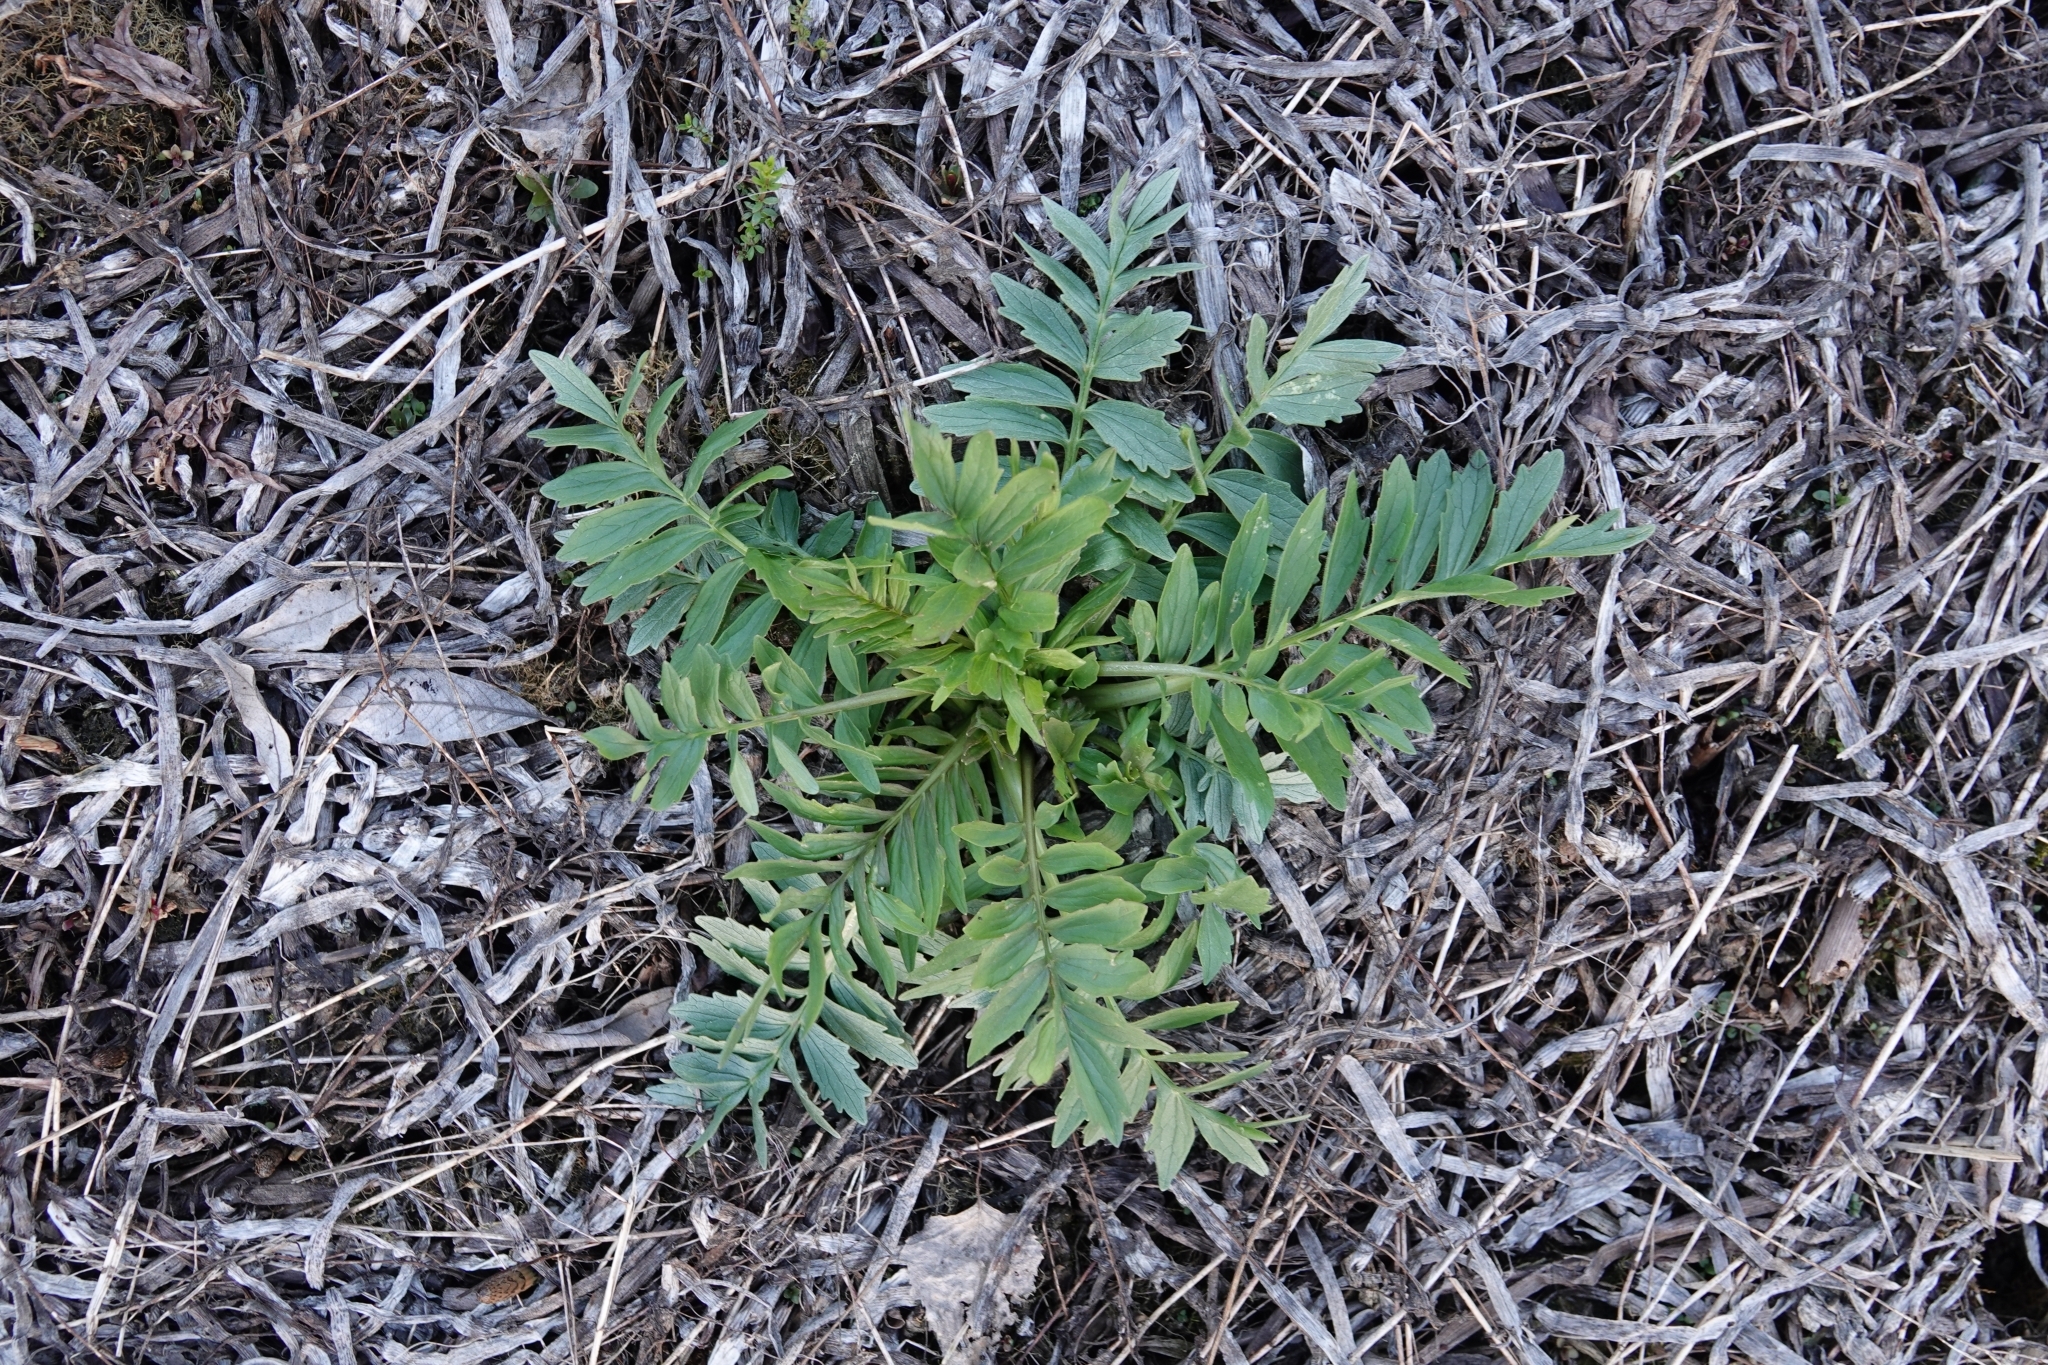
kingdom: Plantae
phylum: Tracheophyta
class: Magnoliopsida
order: Dipsacales
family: Caprifoliaceae
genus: Valeriana
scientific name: Valeriana officinalis
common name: Common valerian
